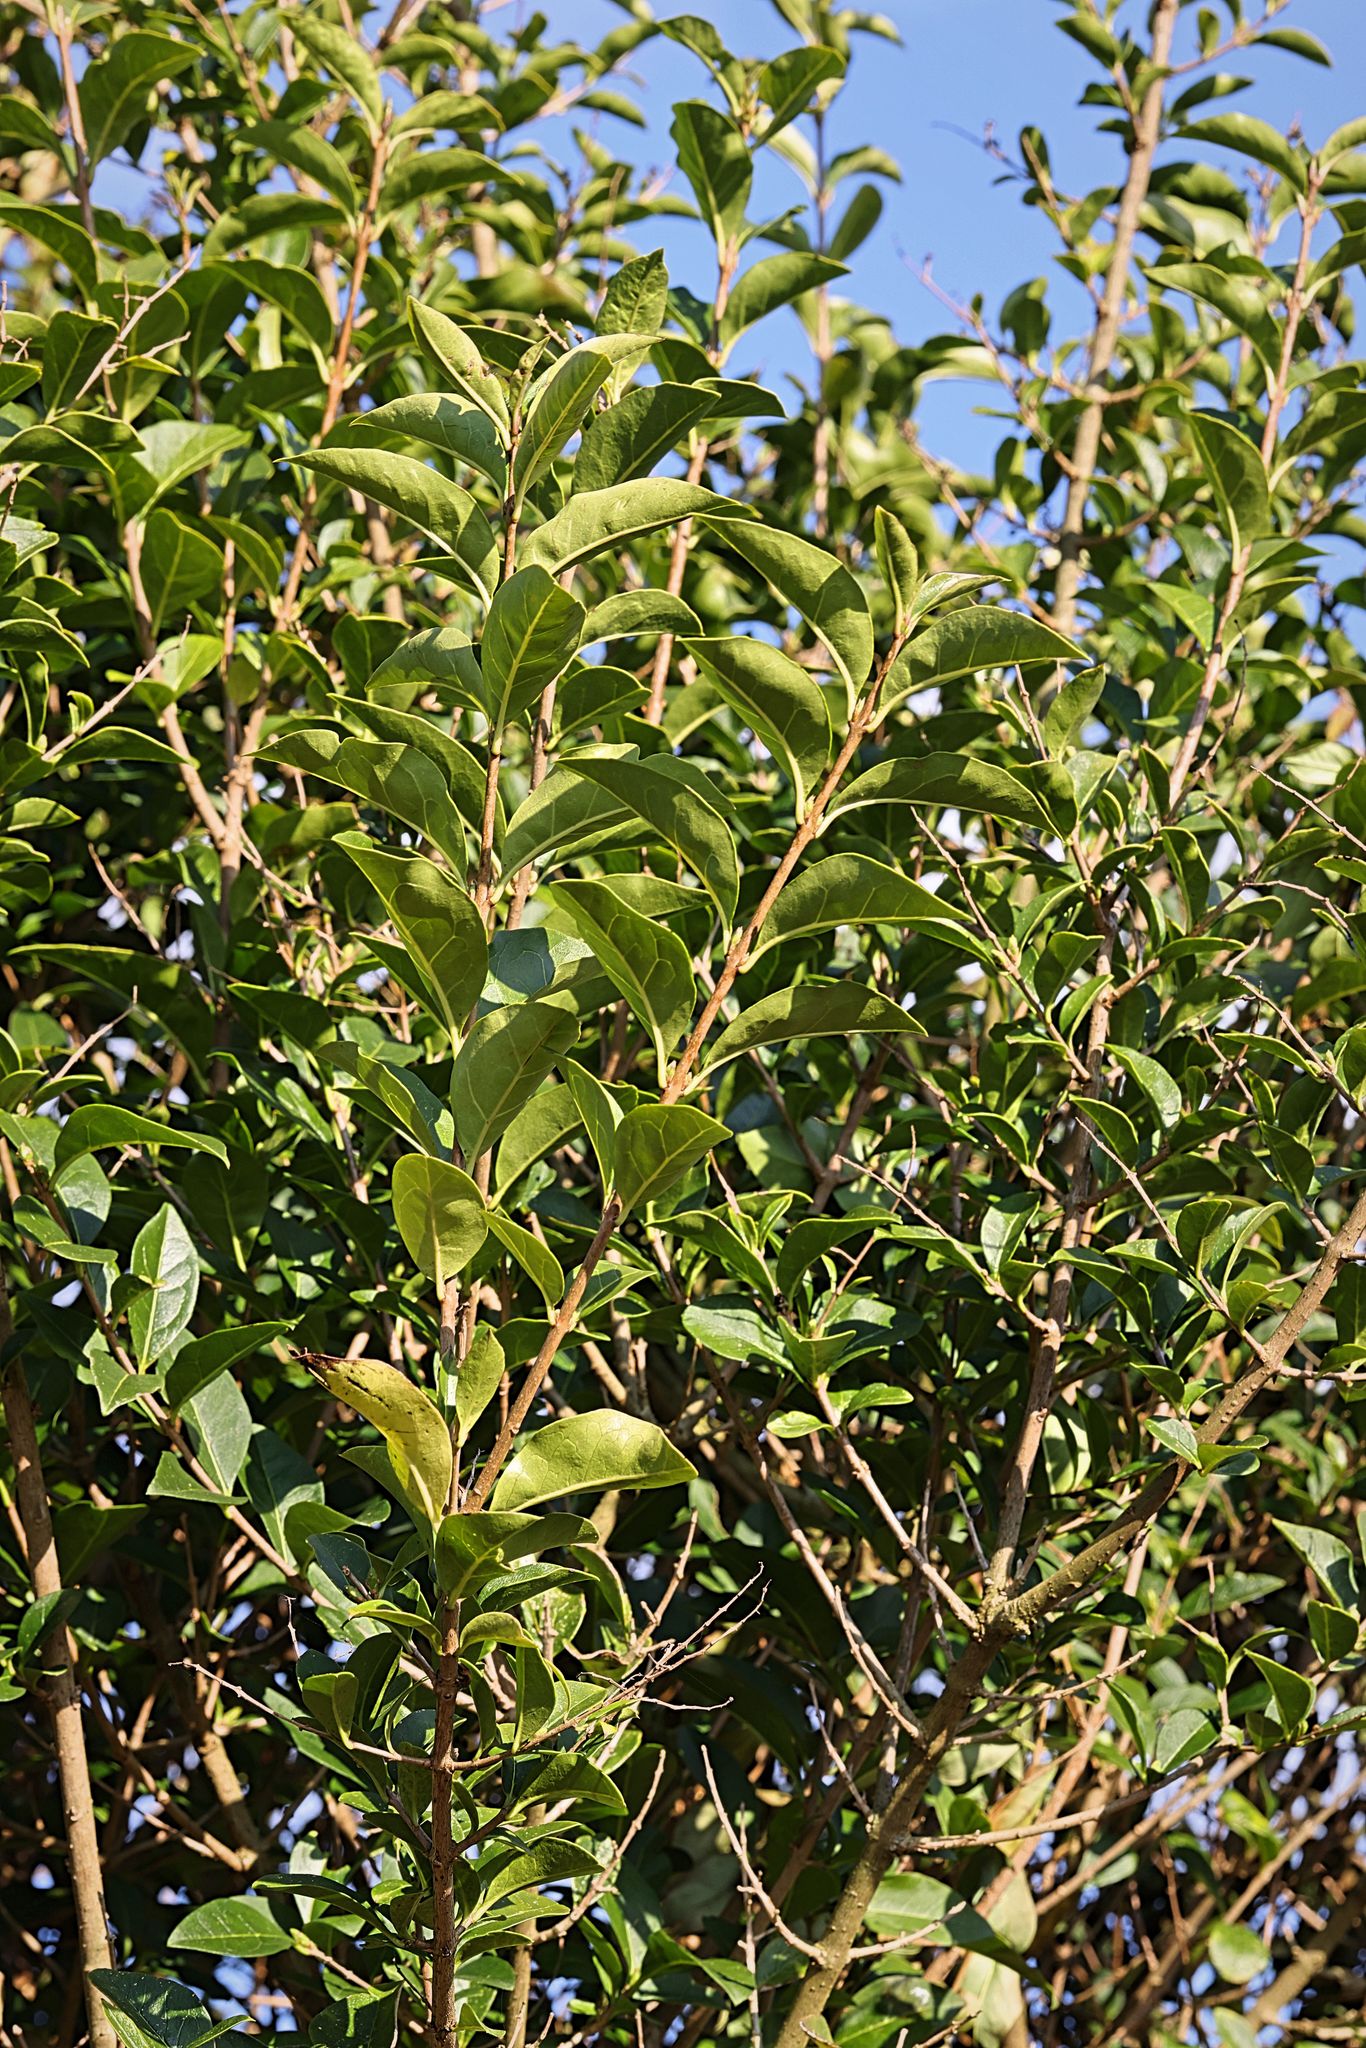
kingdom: Plantae
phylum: Tracheophyta
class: Magnoliopsida
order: Lamiales
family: Oleaceae
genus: Ligustrum
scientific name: Ligustrum ovalifolium
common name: California privet
